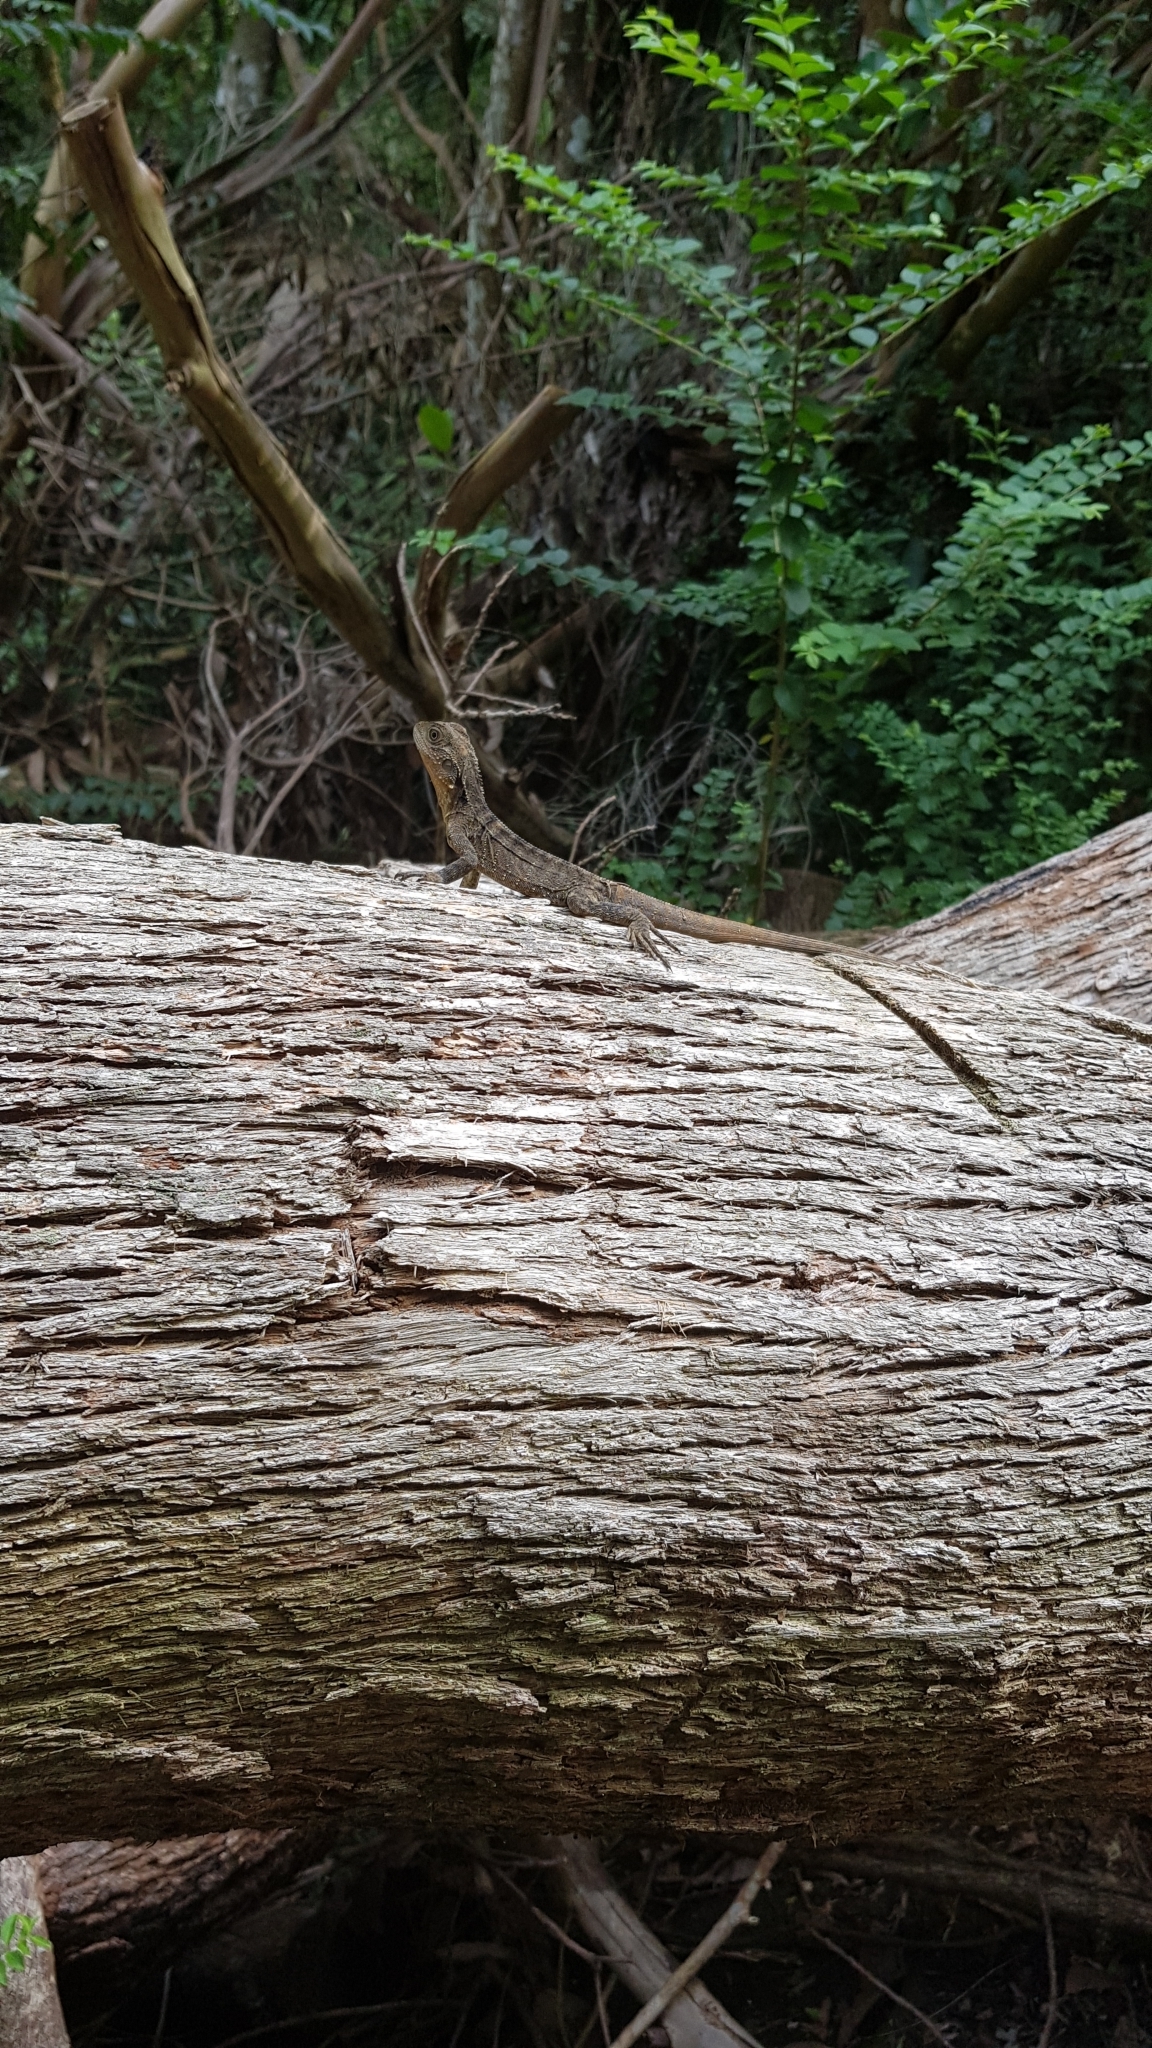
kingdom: Animalia
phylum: Chordata
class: Squamata
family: Agamidae
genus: Intellagama
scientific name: Intellagama lesueurii
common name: Eastern water dragon
